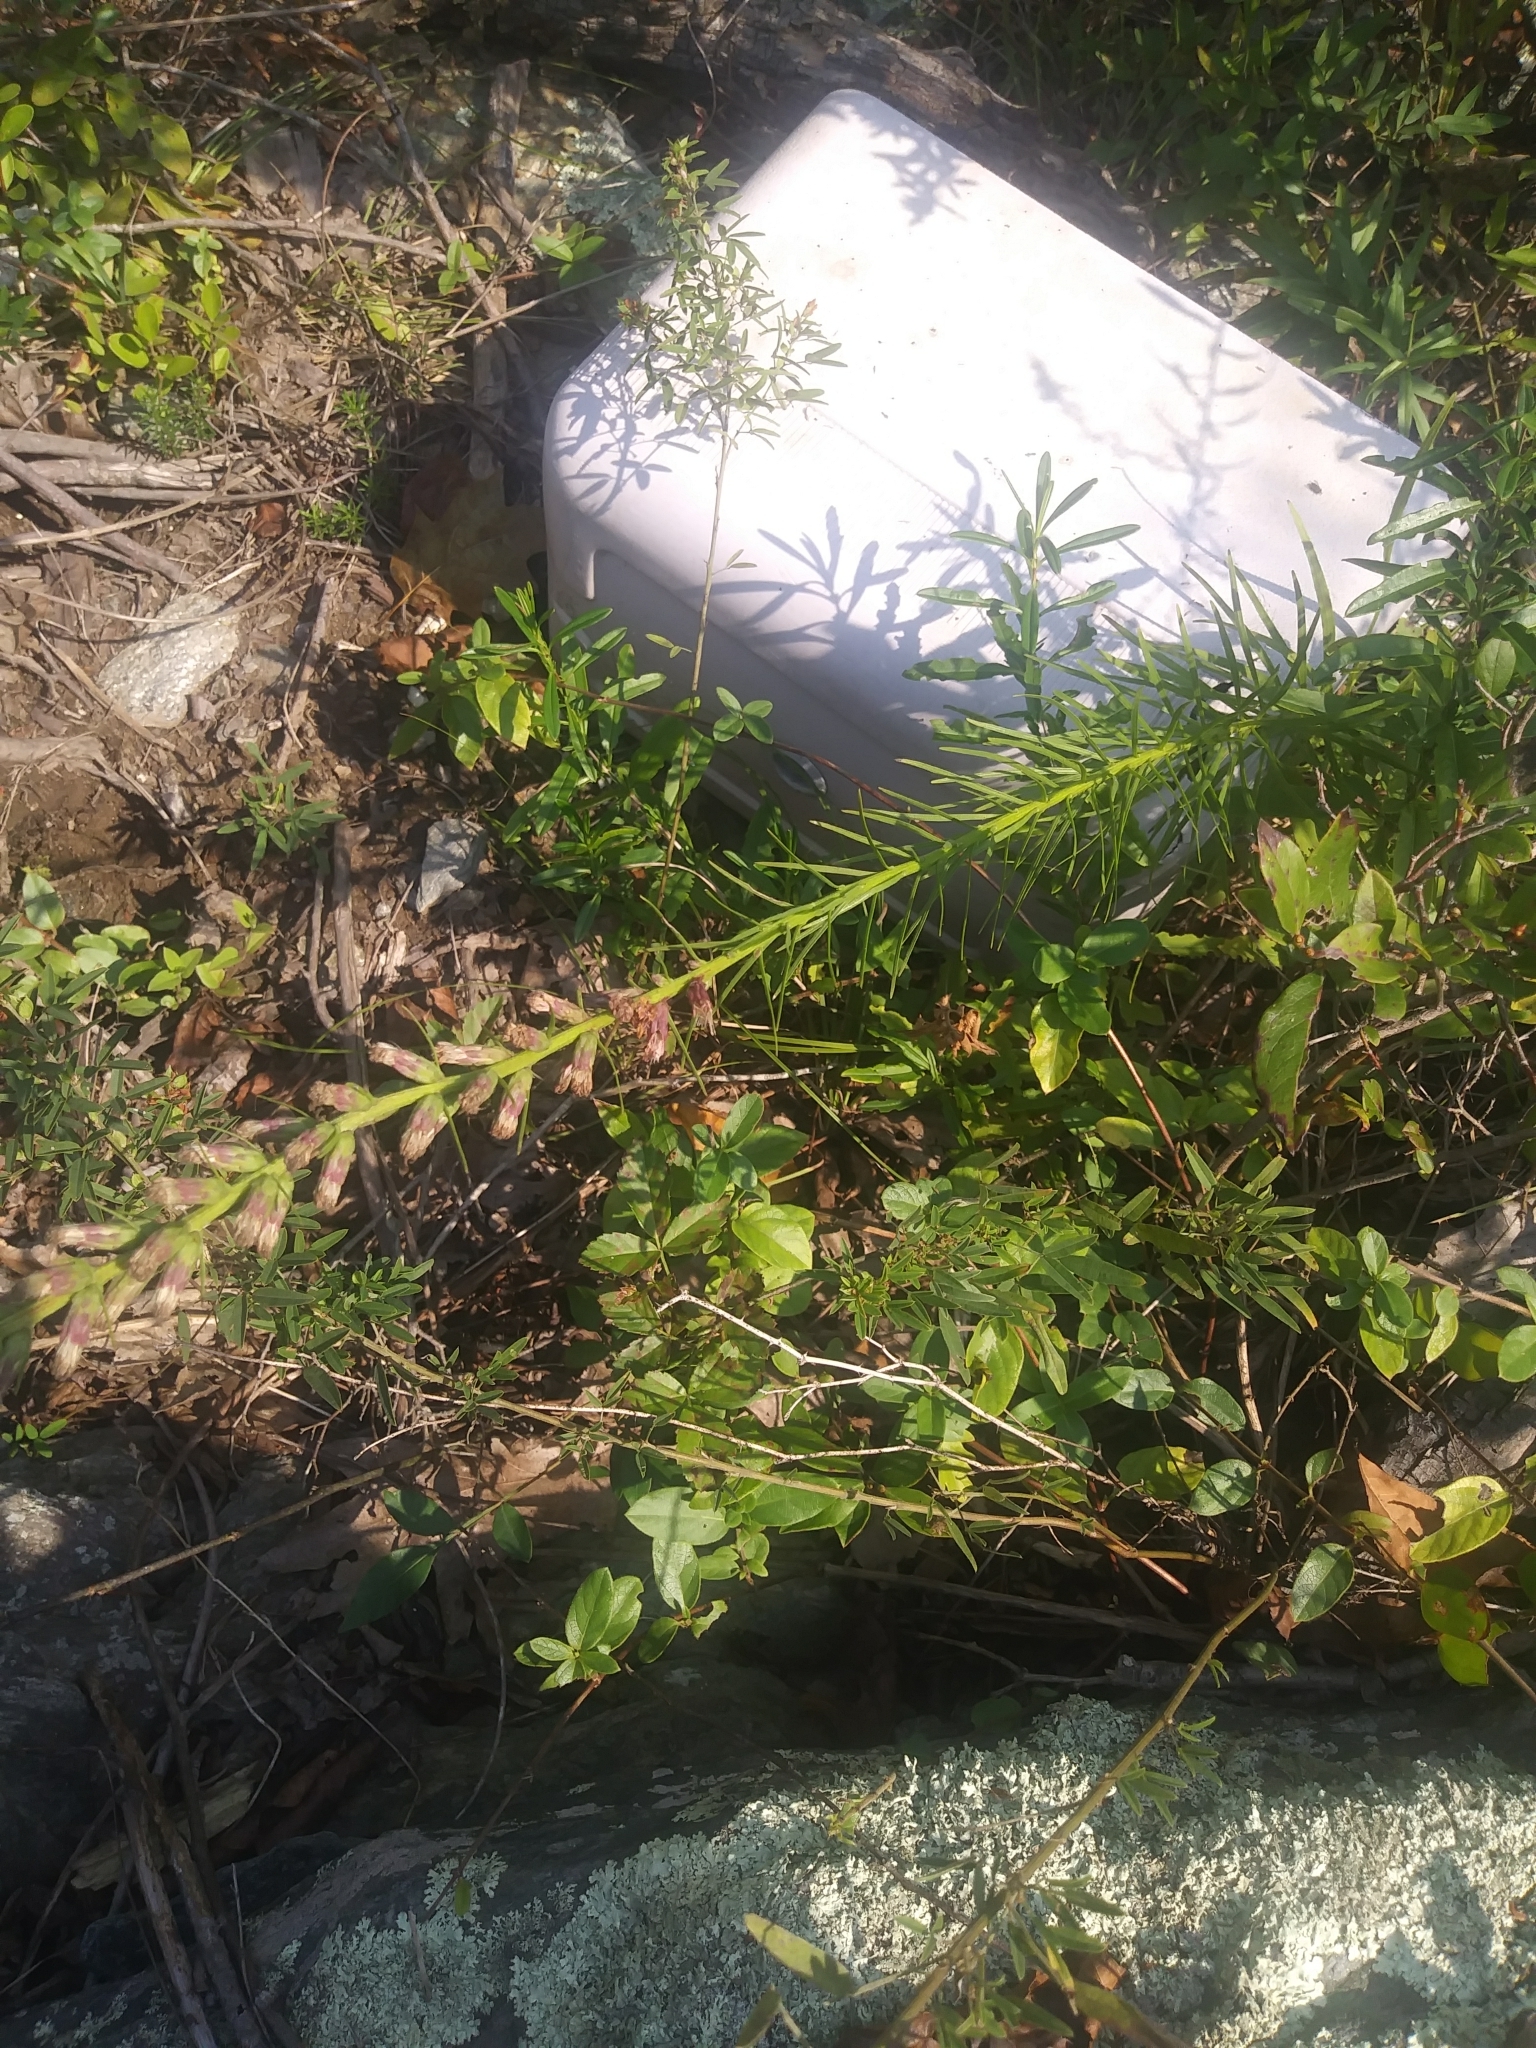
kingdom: Plantae
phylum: Tracheophyta
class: Magnoliopsida
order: Asterales
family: Asteraceae
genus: Liatris
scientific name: Liatris spicata
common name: Florist gayfeather
